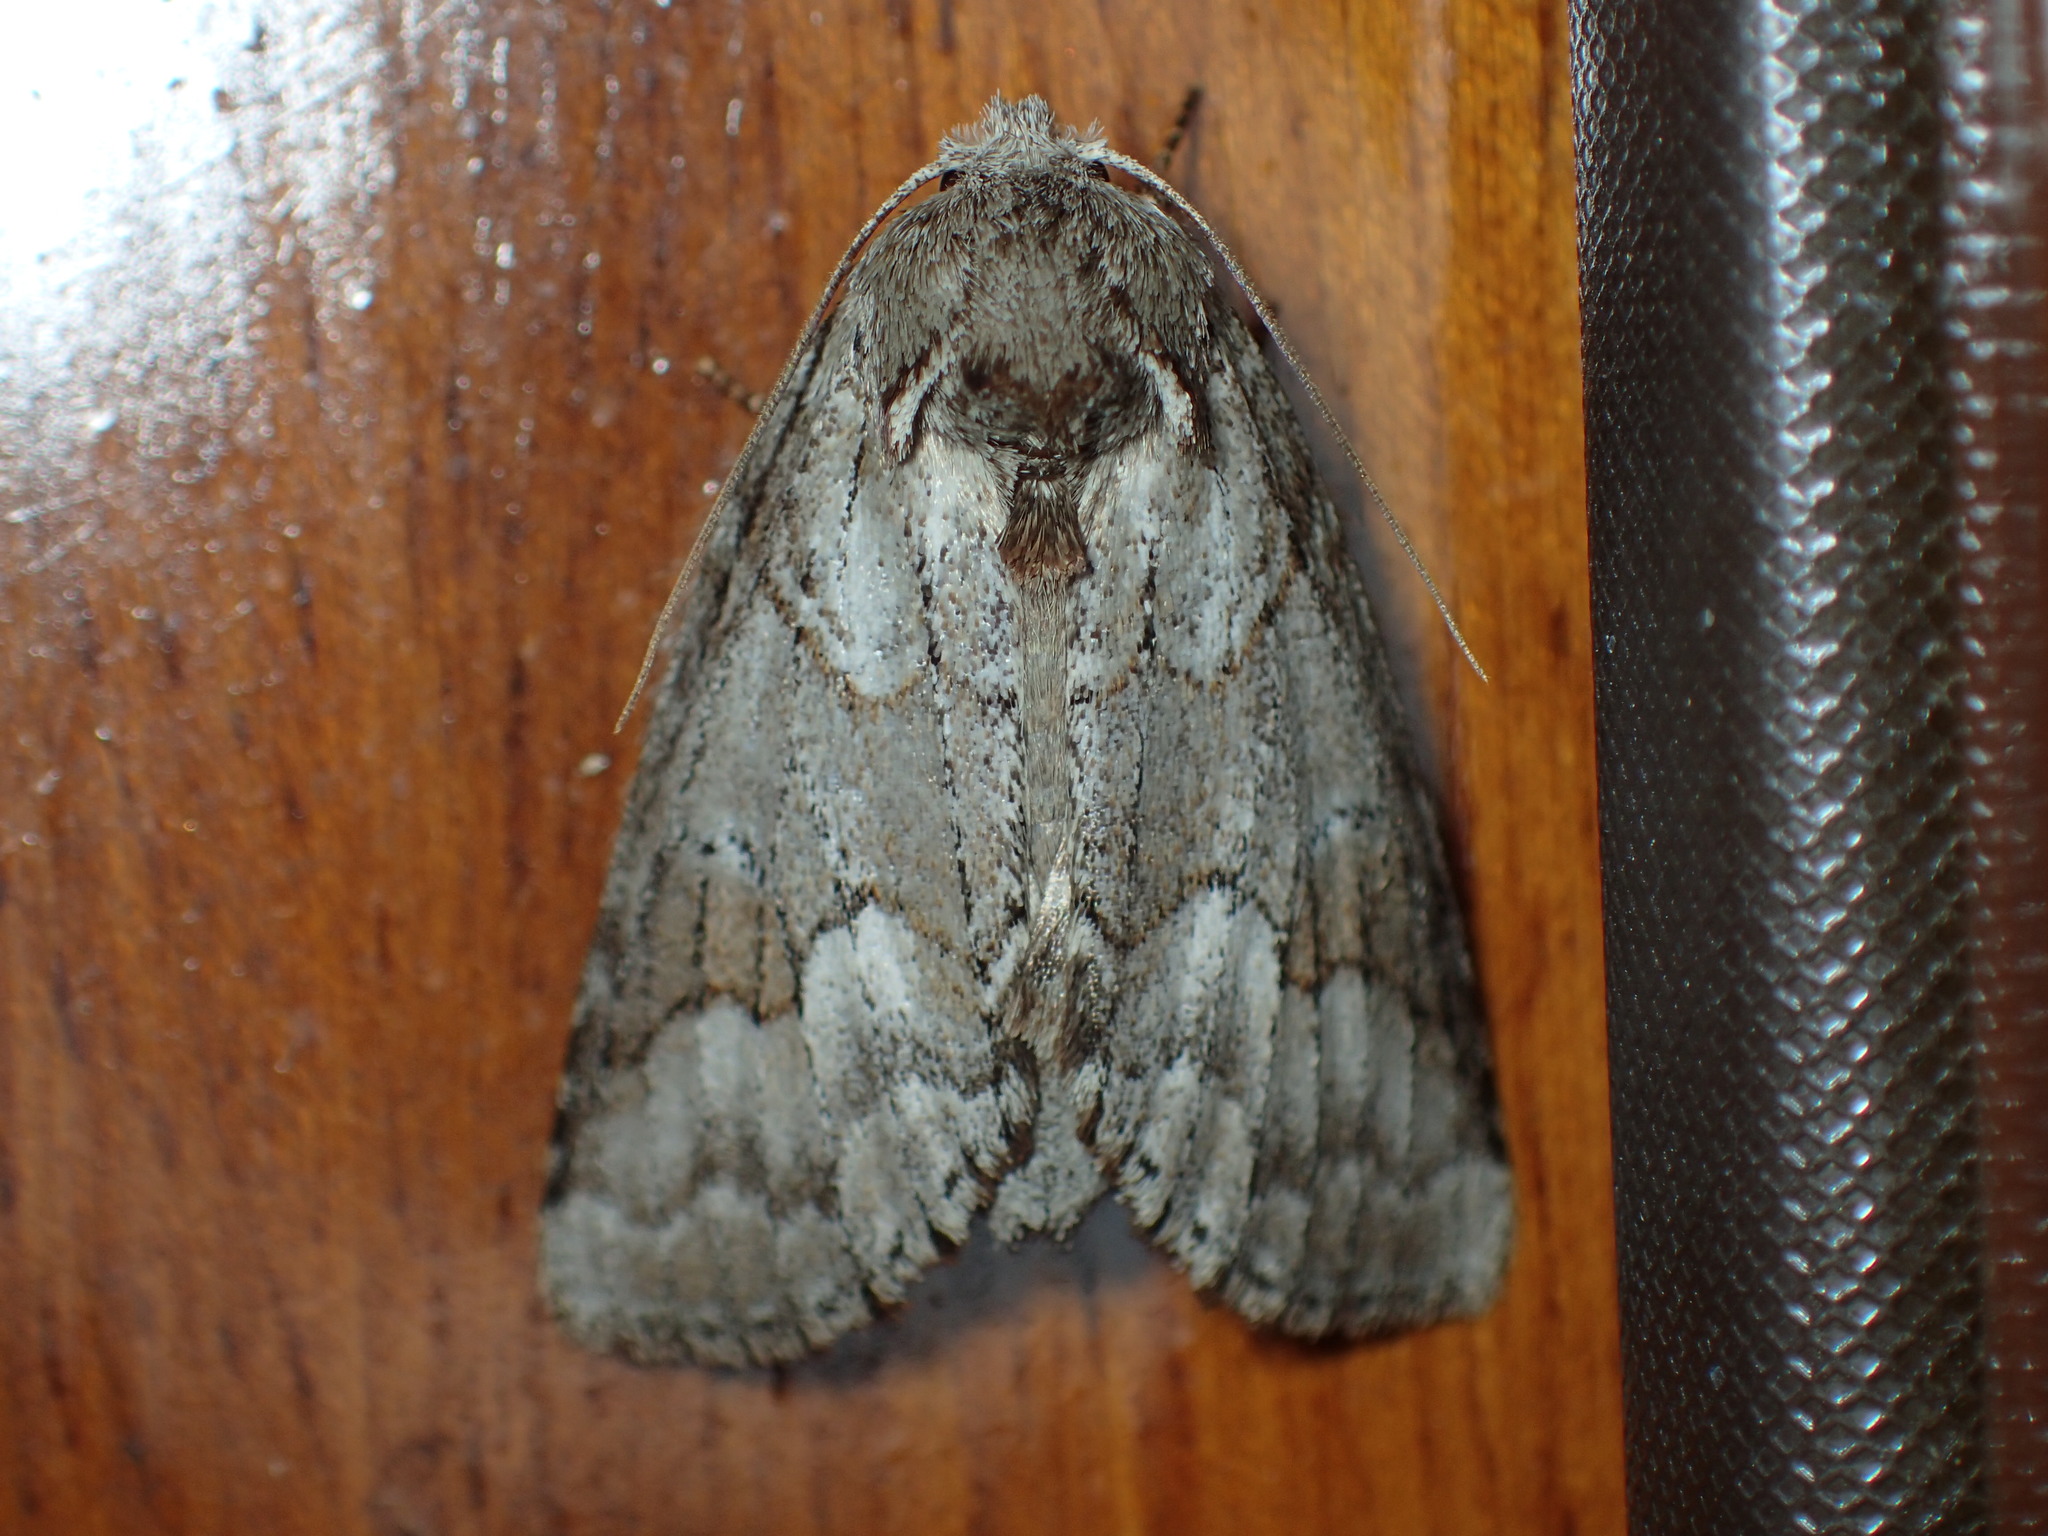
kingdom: Animalia
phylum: Arthropoda
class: Insecta
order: Lepidoptera
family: Notodontidae
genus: Lochmaeus
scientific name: Lochmaeus bilineata
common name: Double-lined prominent
